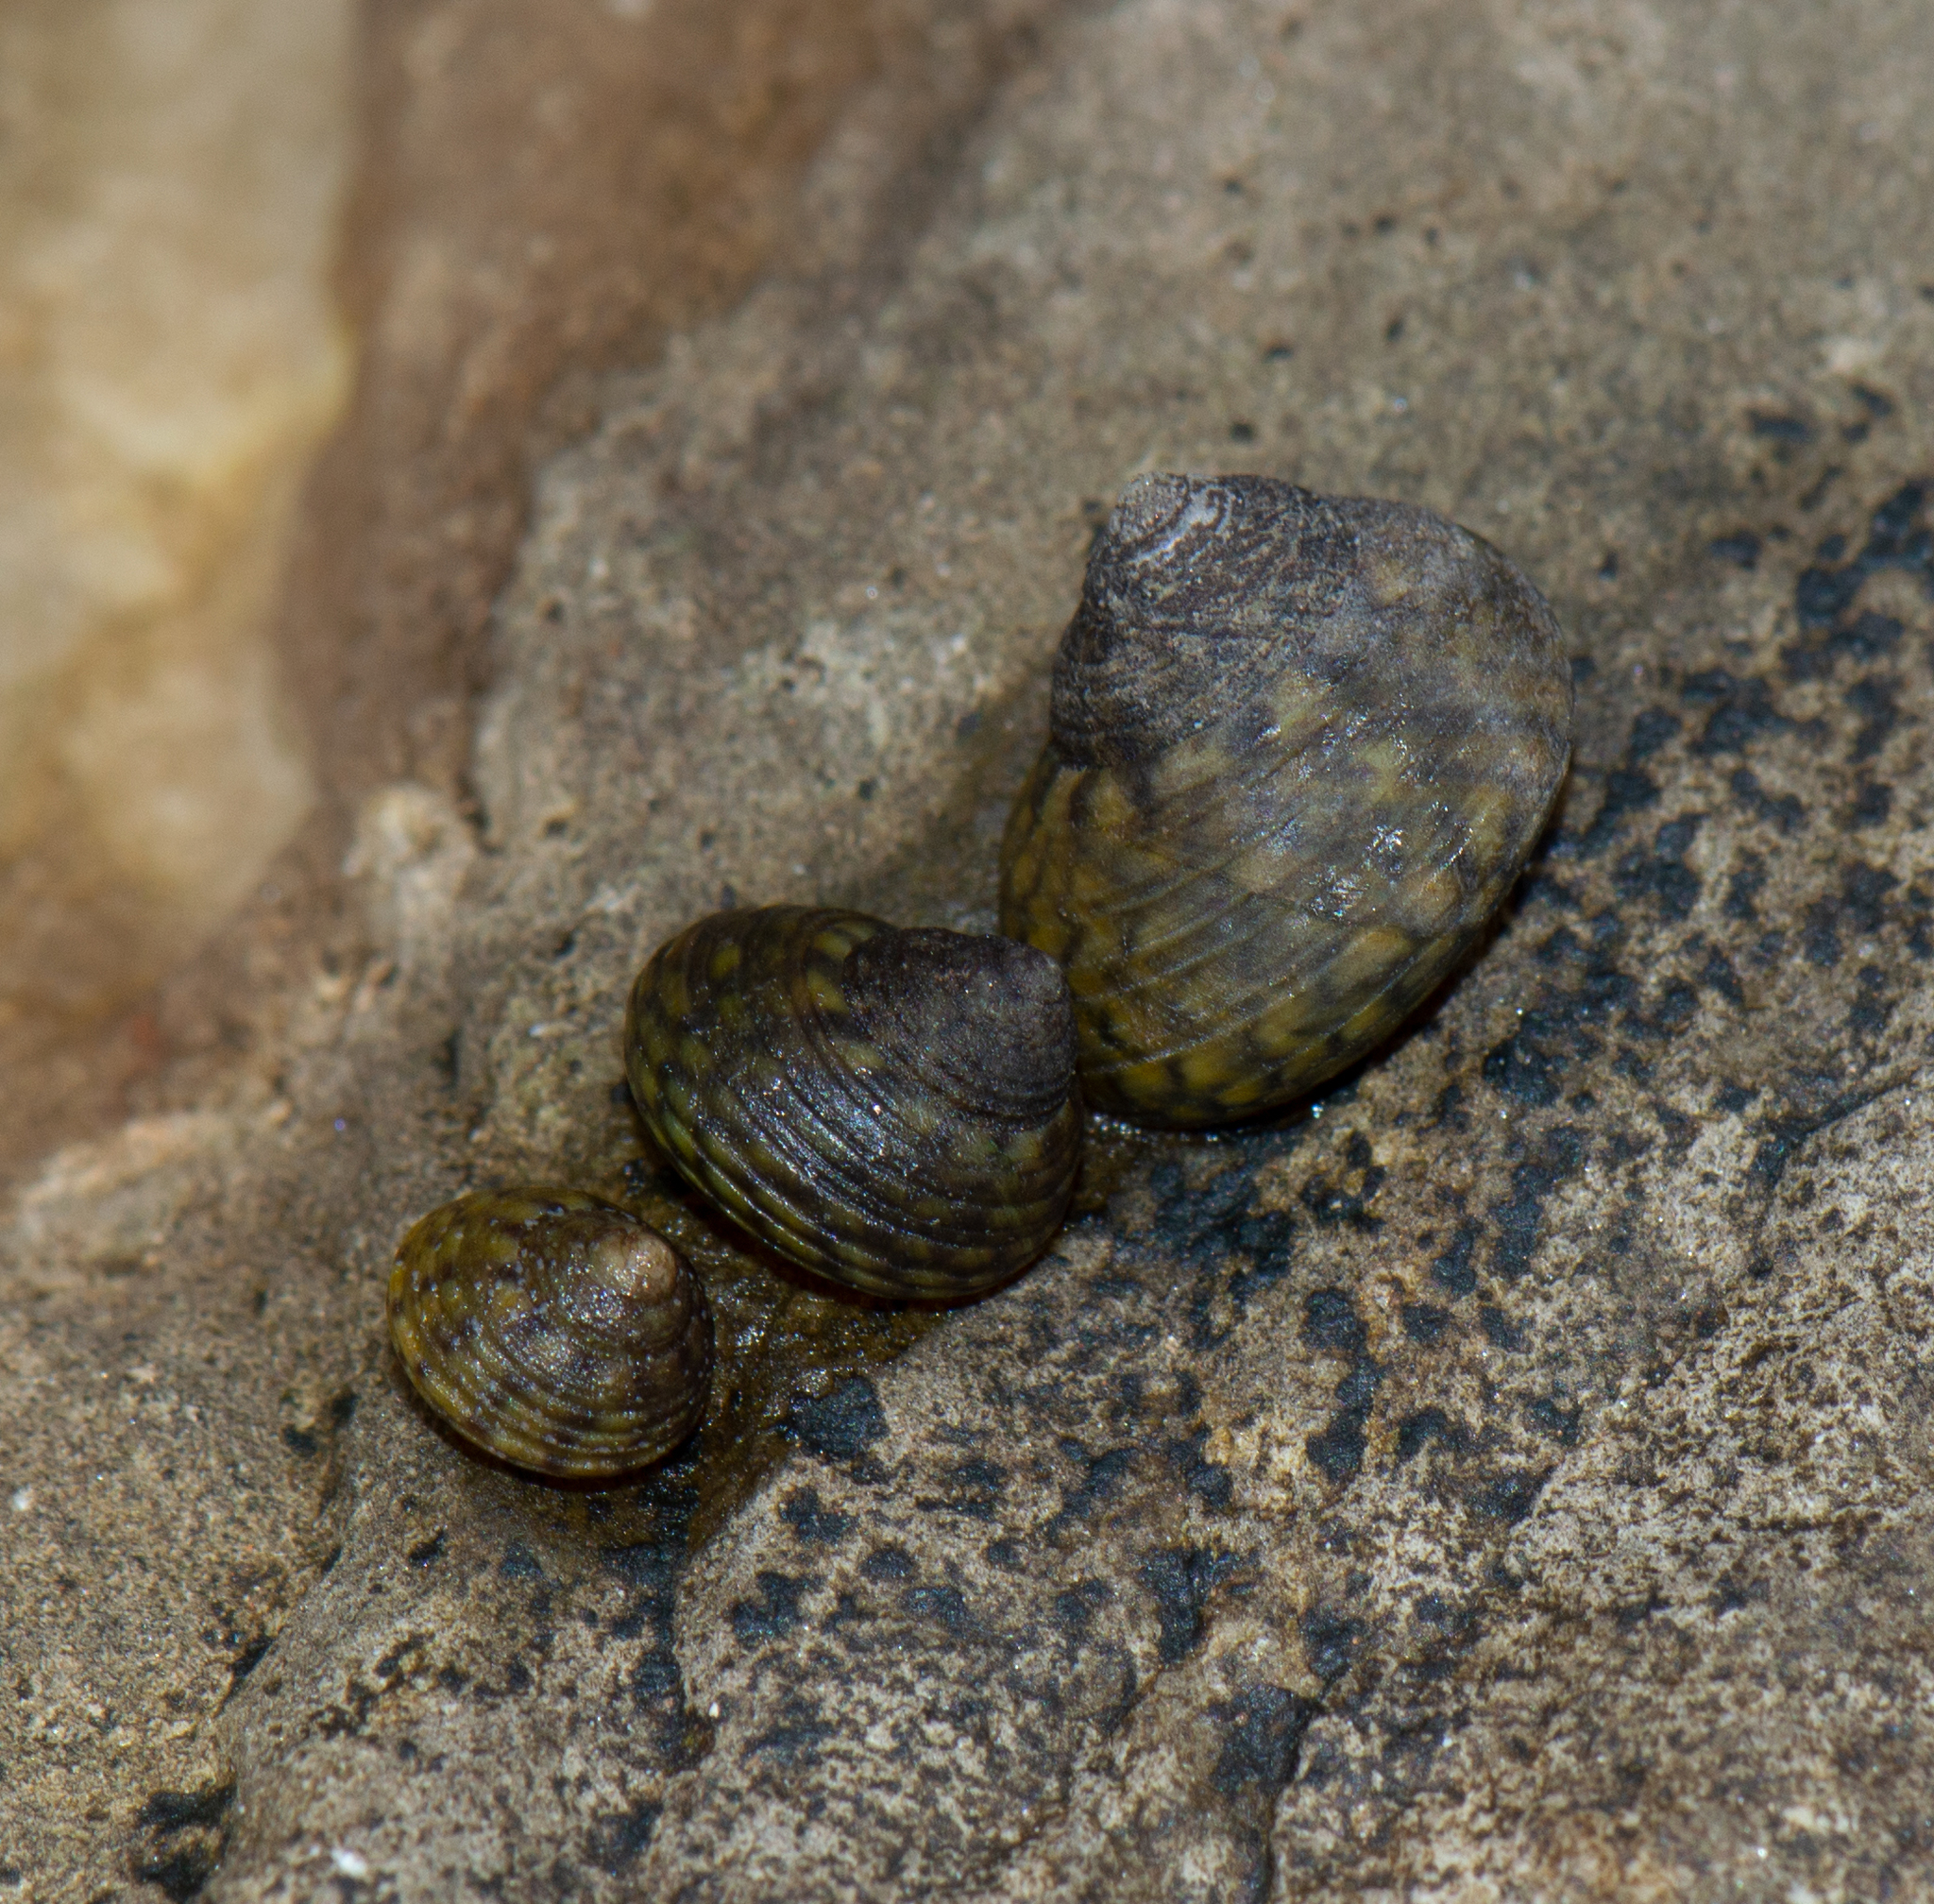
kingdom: Animalia
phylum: Mollusca
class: Gastropoda
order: Trochida
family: Trochidae
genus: Phorcus
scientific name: Phorcus turbinatus
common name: Turbinate monodont
